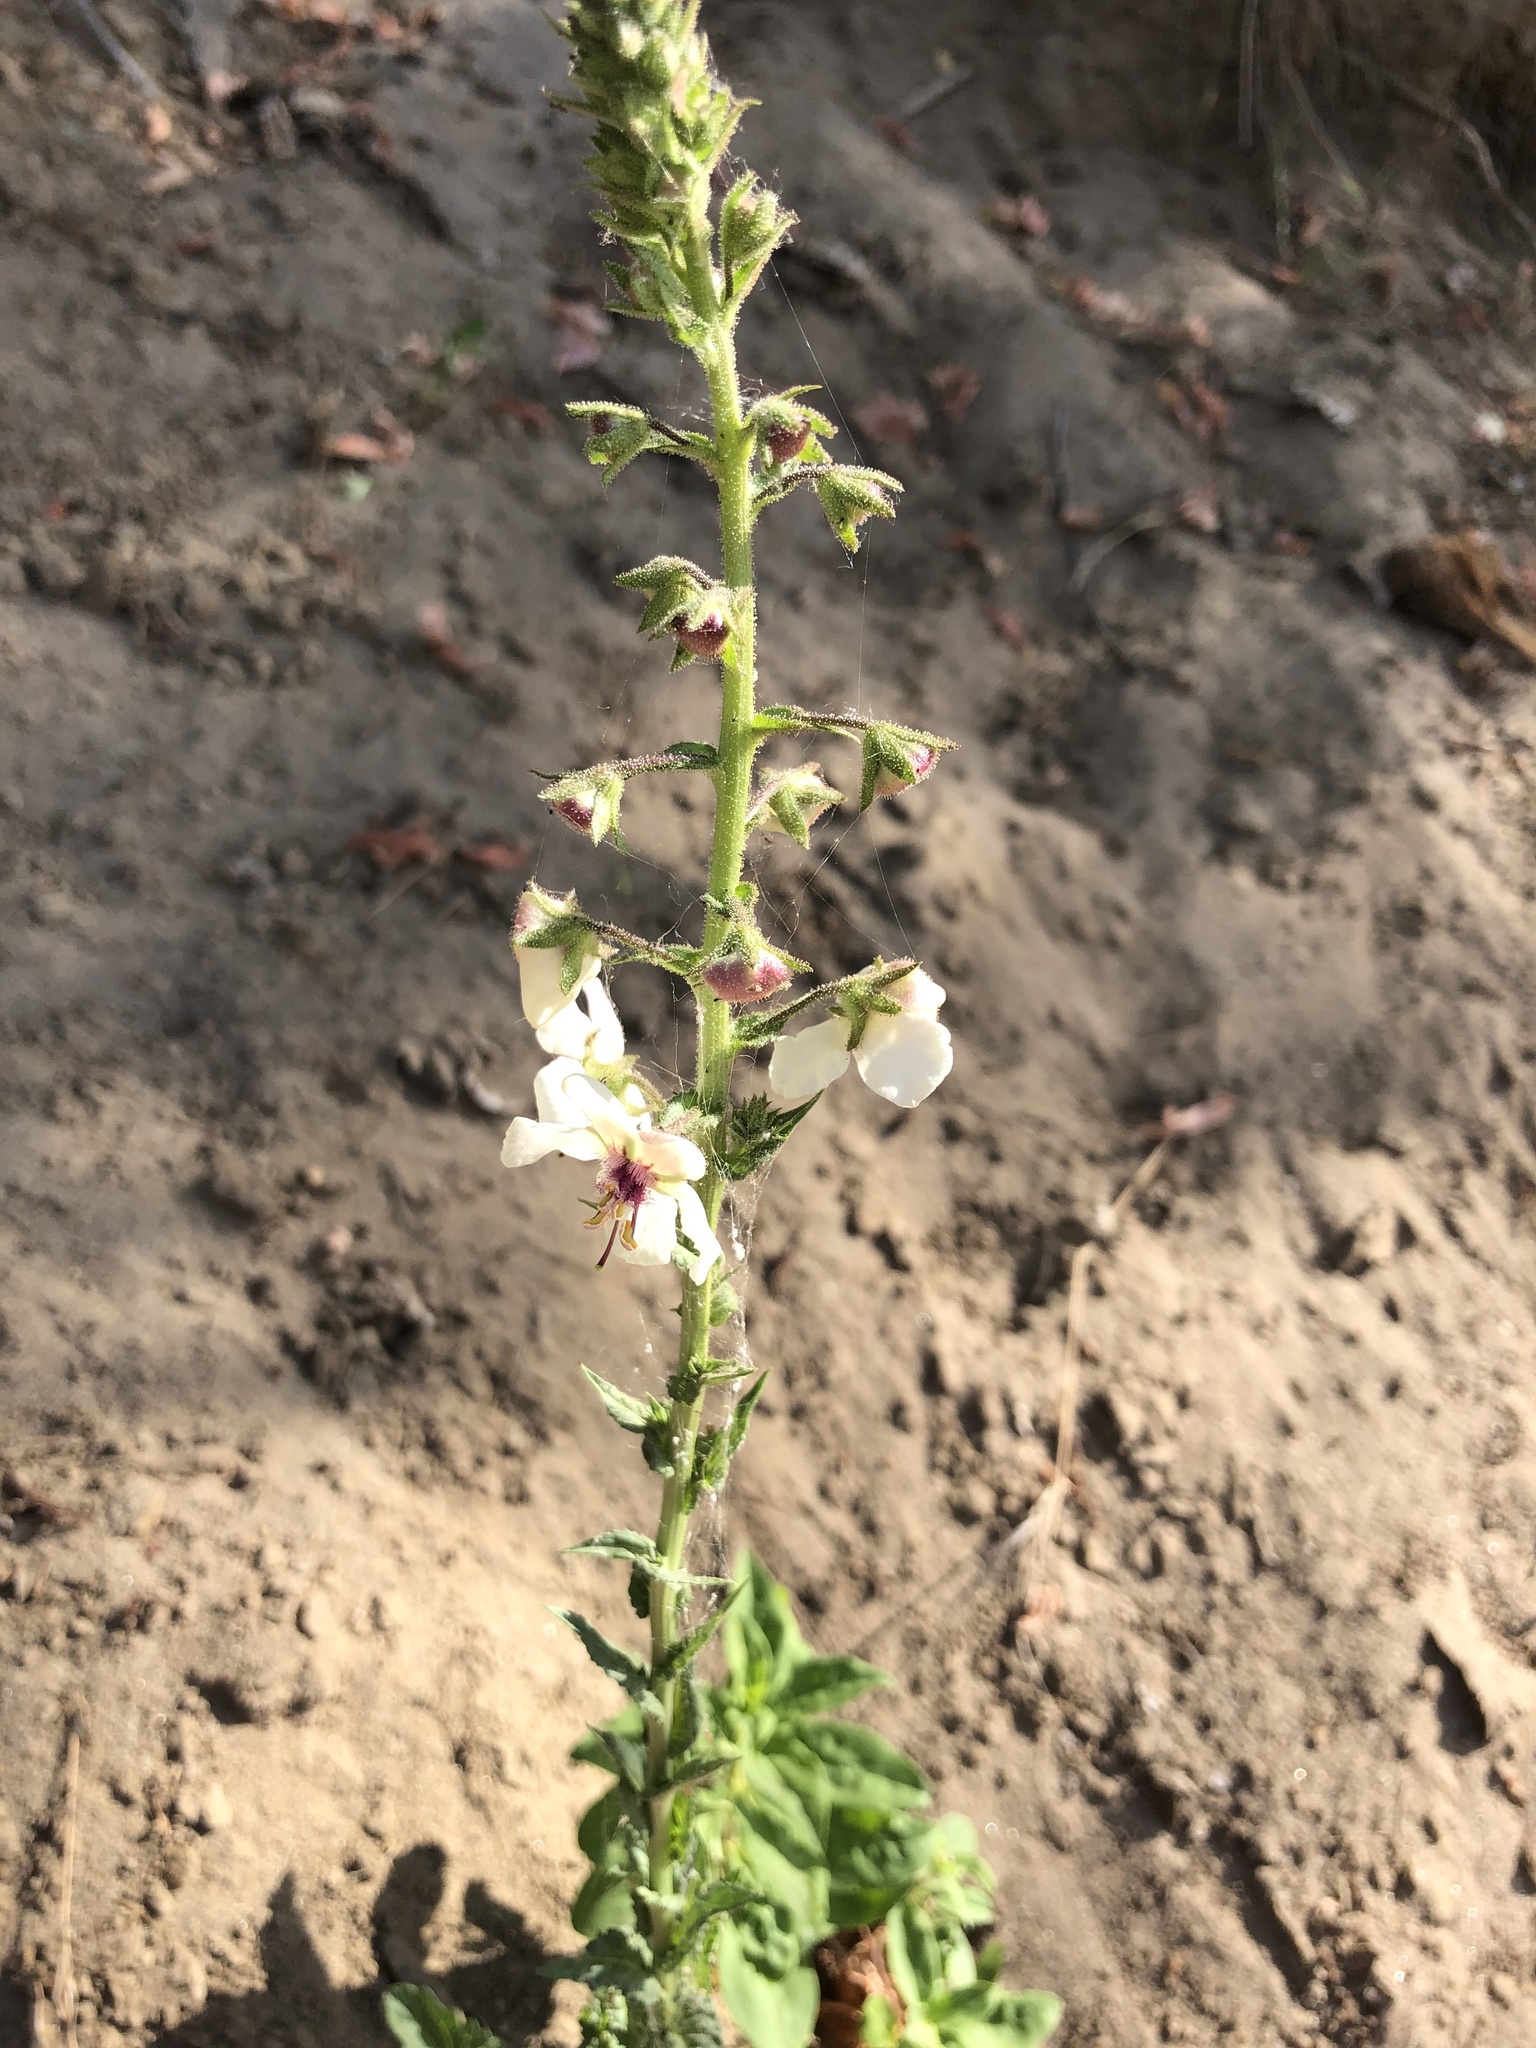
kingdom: Plantae
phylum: Tracheophyta
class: Magnoliopsida
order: Lamiales
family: Scrophulariaceae
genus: Verbascum
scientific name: Verbascum blattaria
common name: Moth mullein
